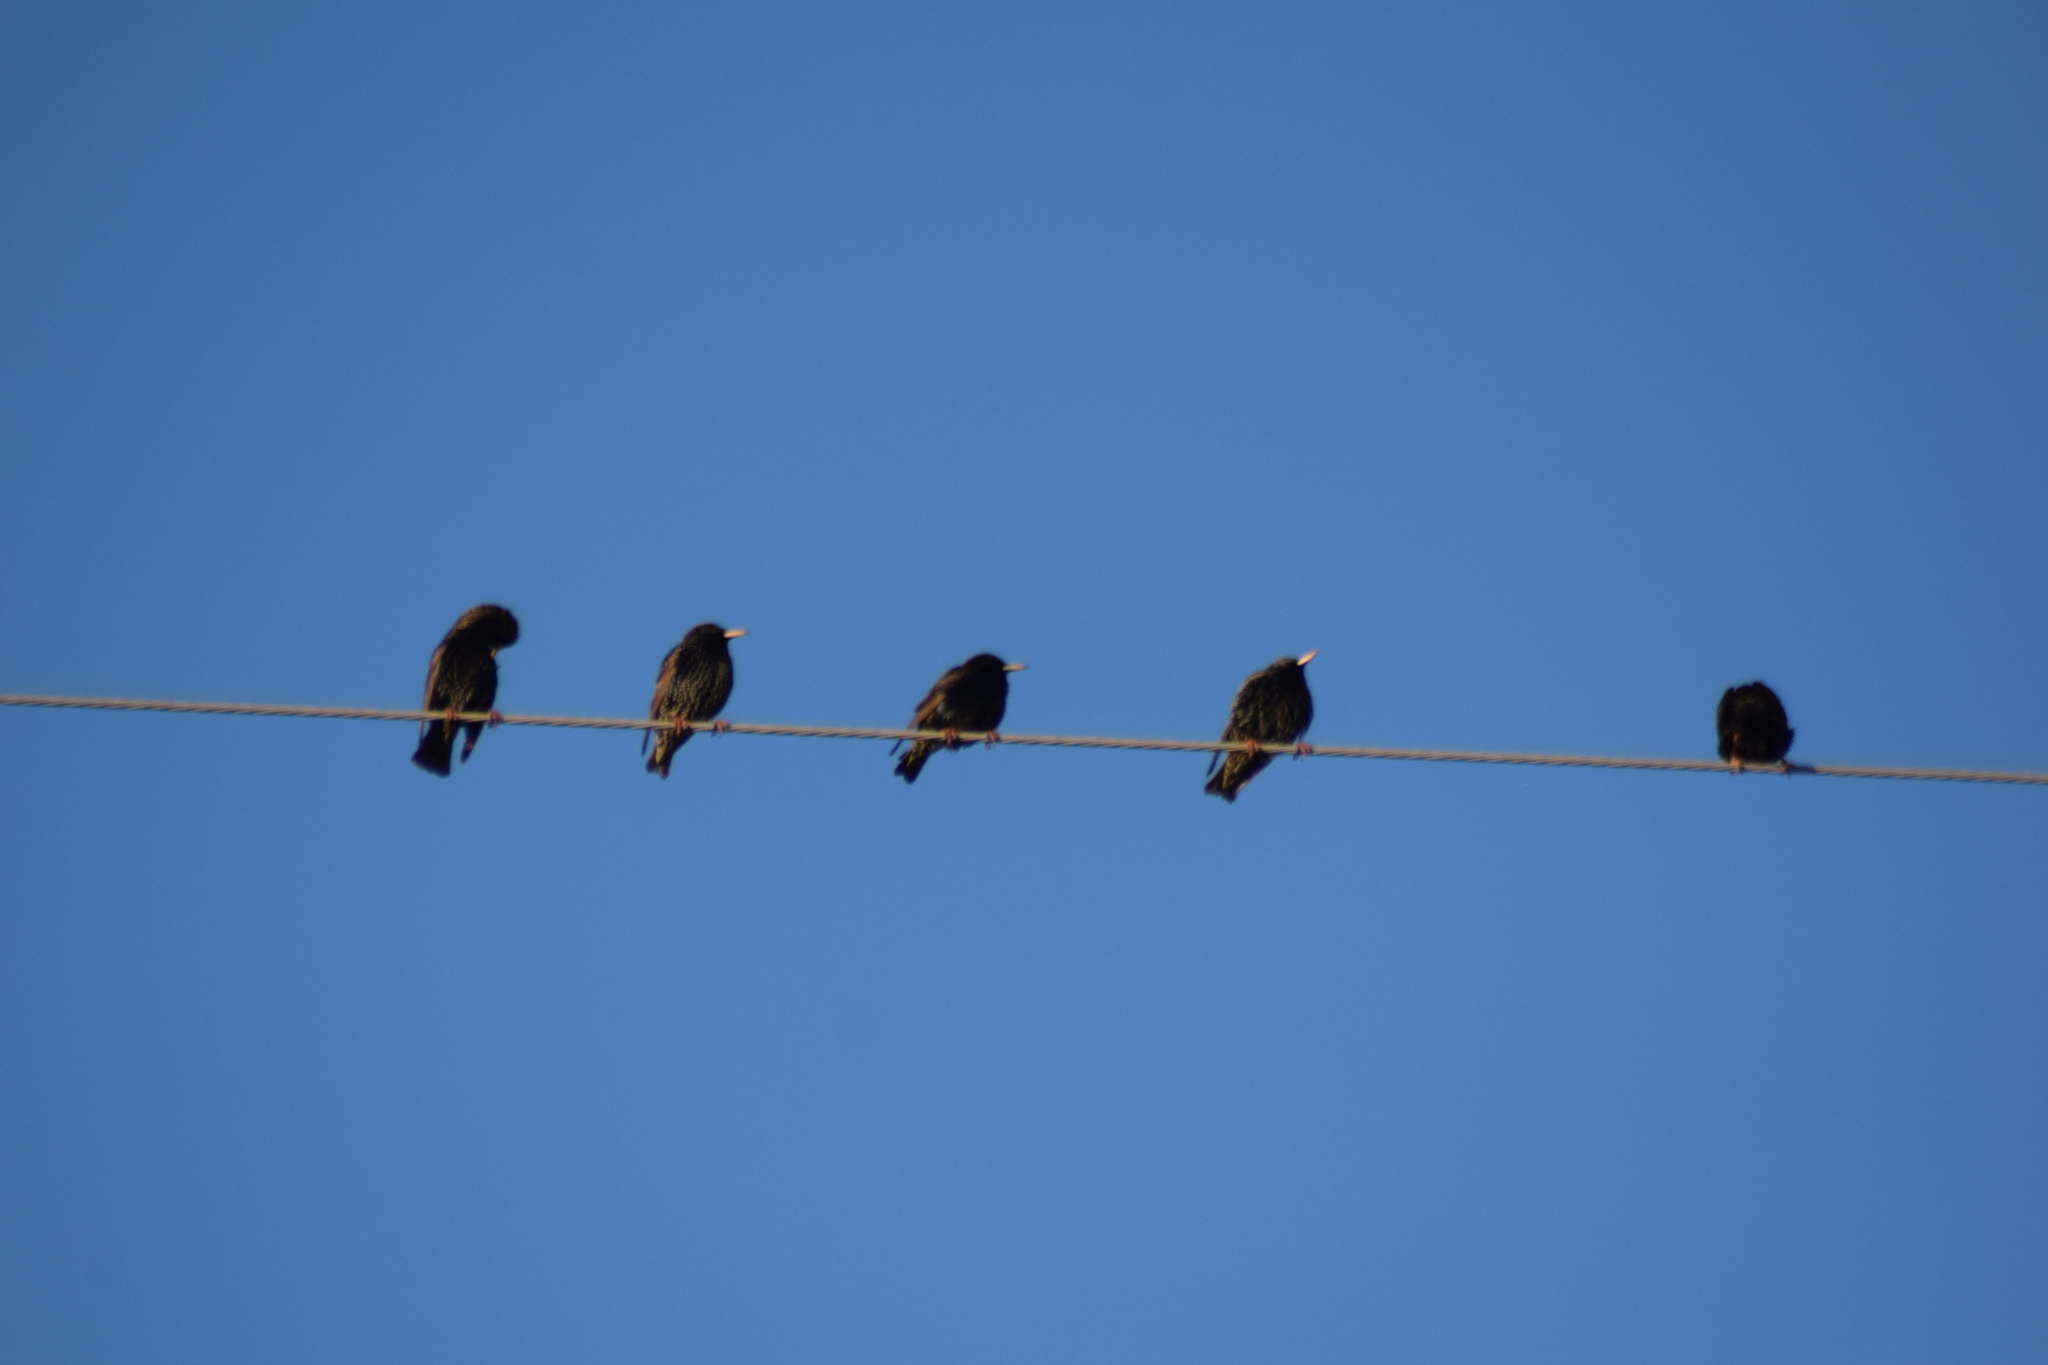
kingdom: Animalia
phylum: Chordata
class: Aves
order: Passeriformes
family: Sturnidae
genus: Sturnus
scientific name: Sturnus vulgaris
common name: Common starling
